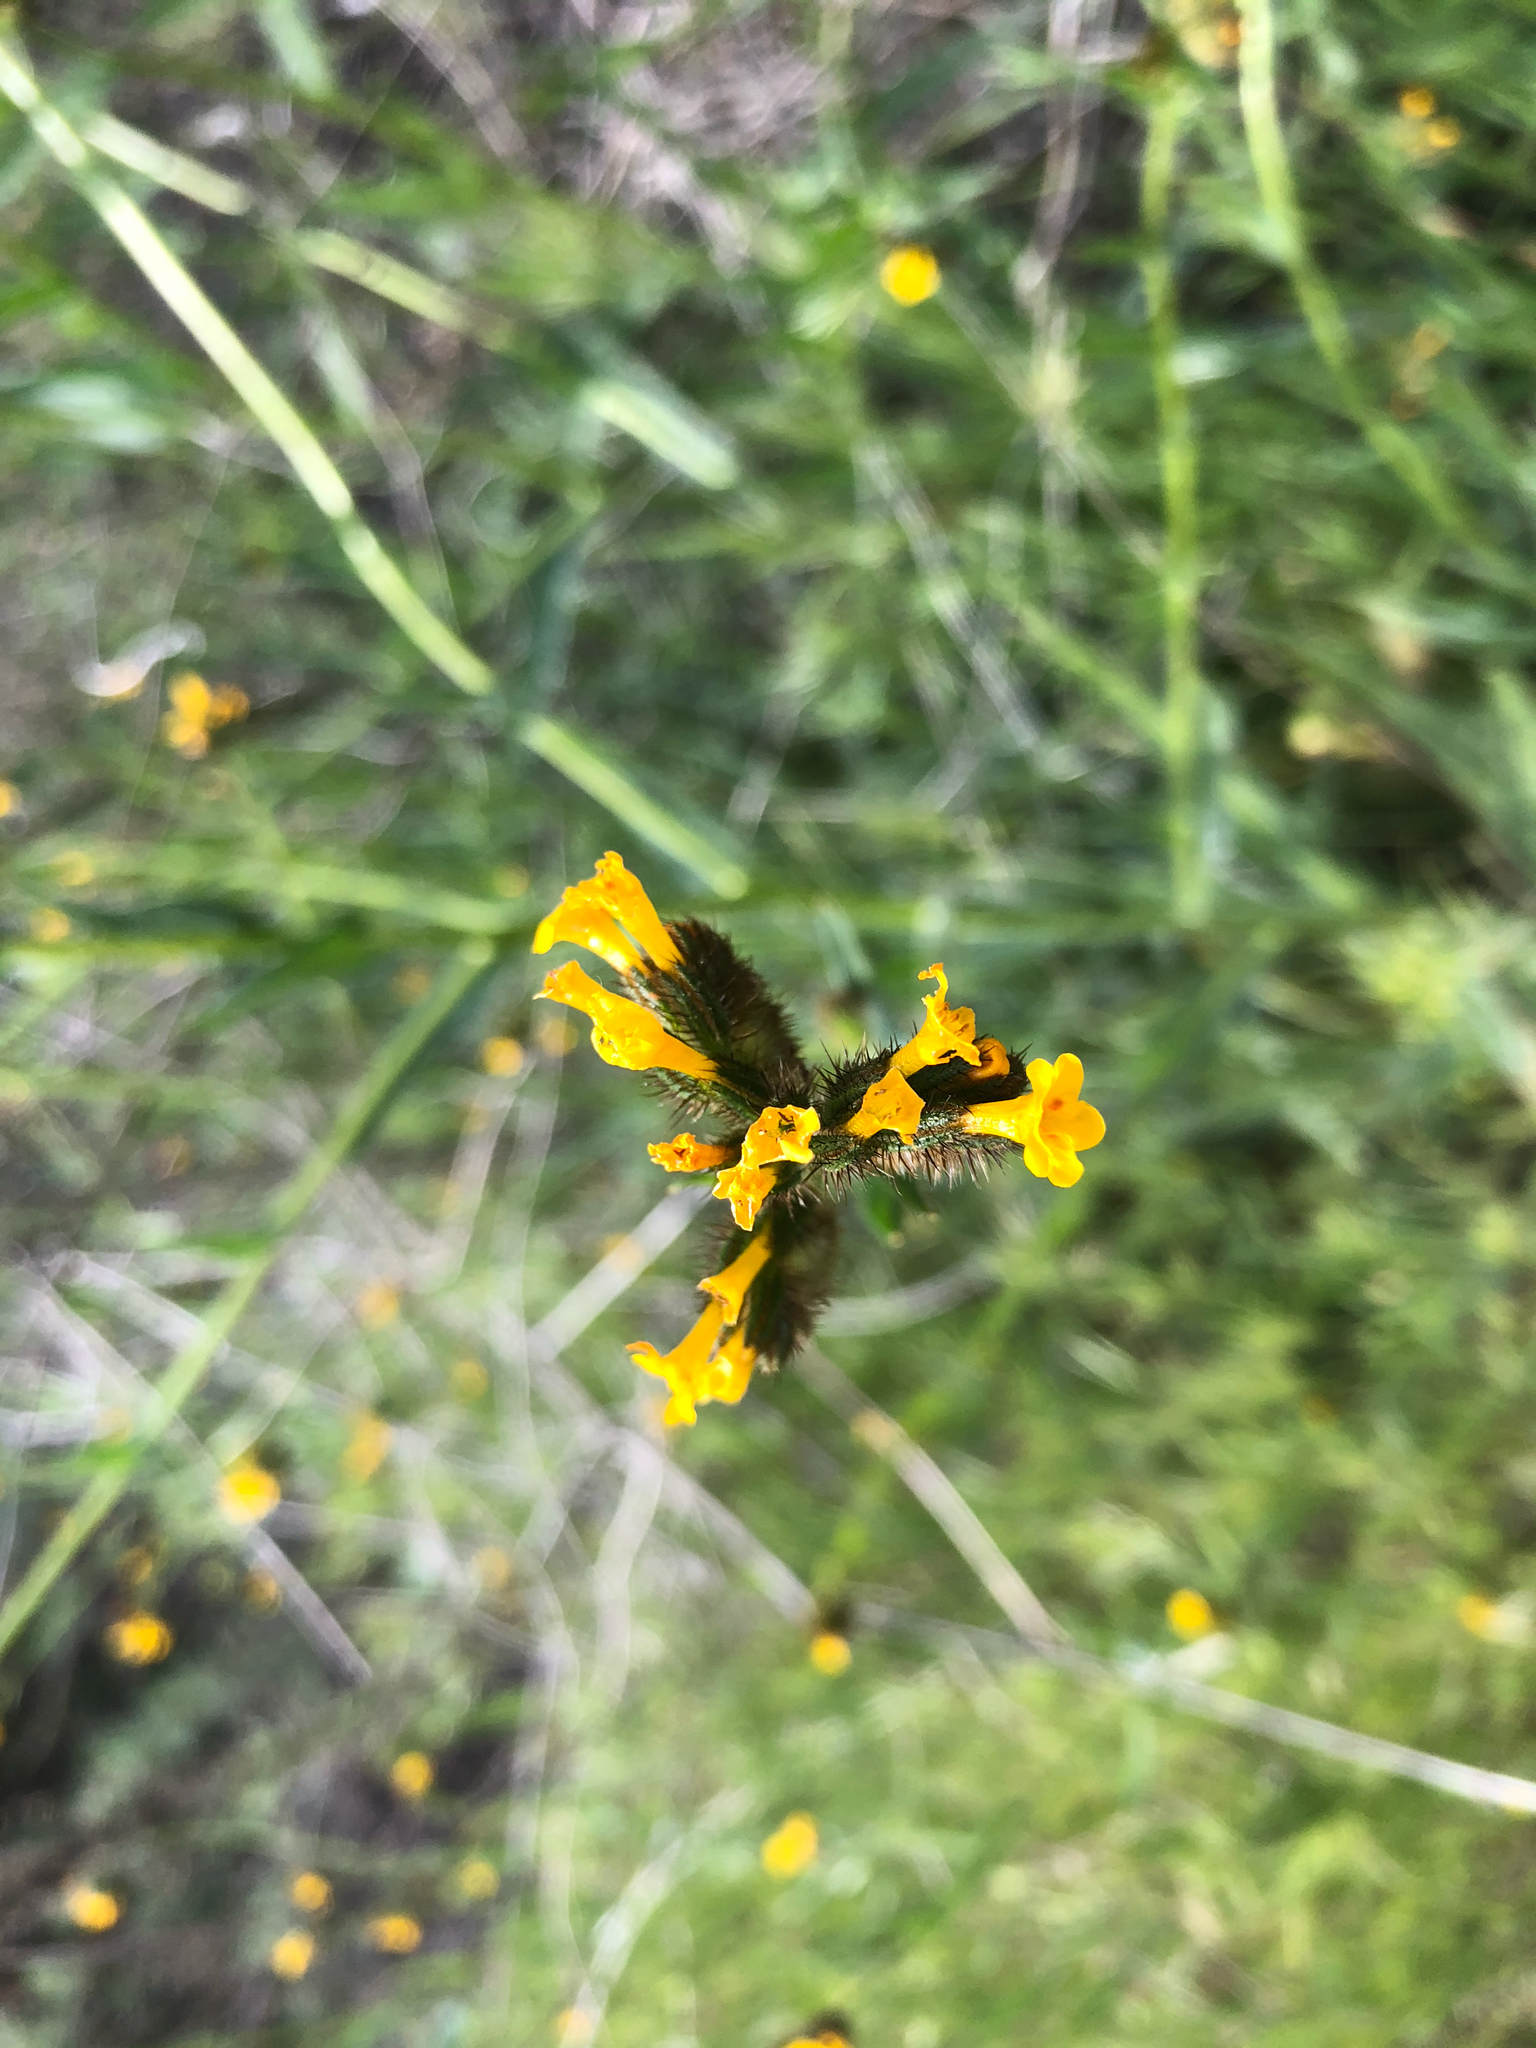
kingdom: Plantae
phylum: Tracheophyta
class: Magnoliopsida
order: Boraginales
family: Boraginaceae
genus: Amsinckia
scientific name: Amsinckia menziesii
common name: Menzies' fiddleneck
